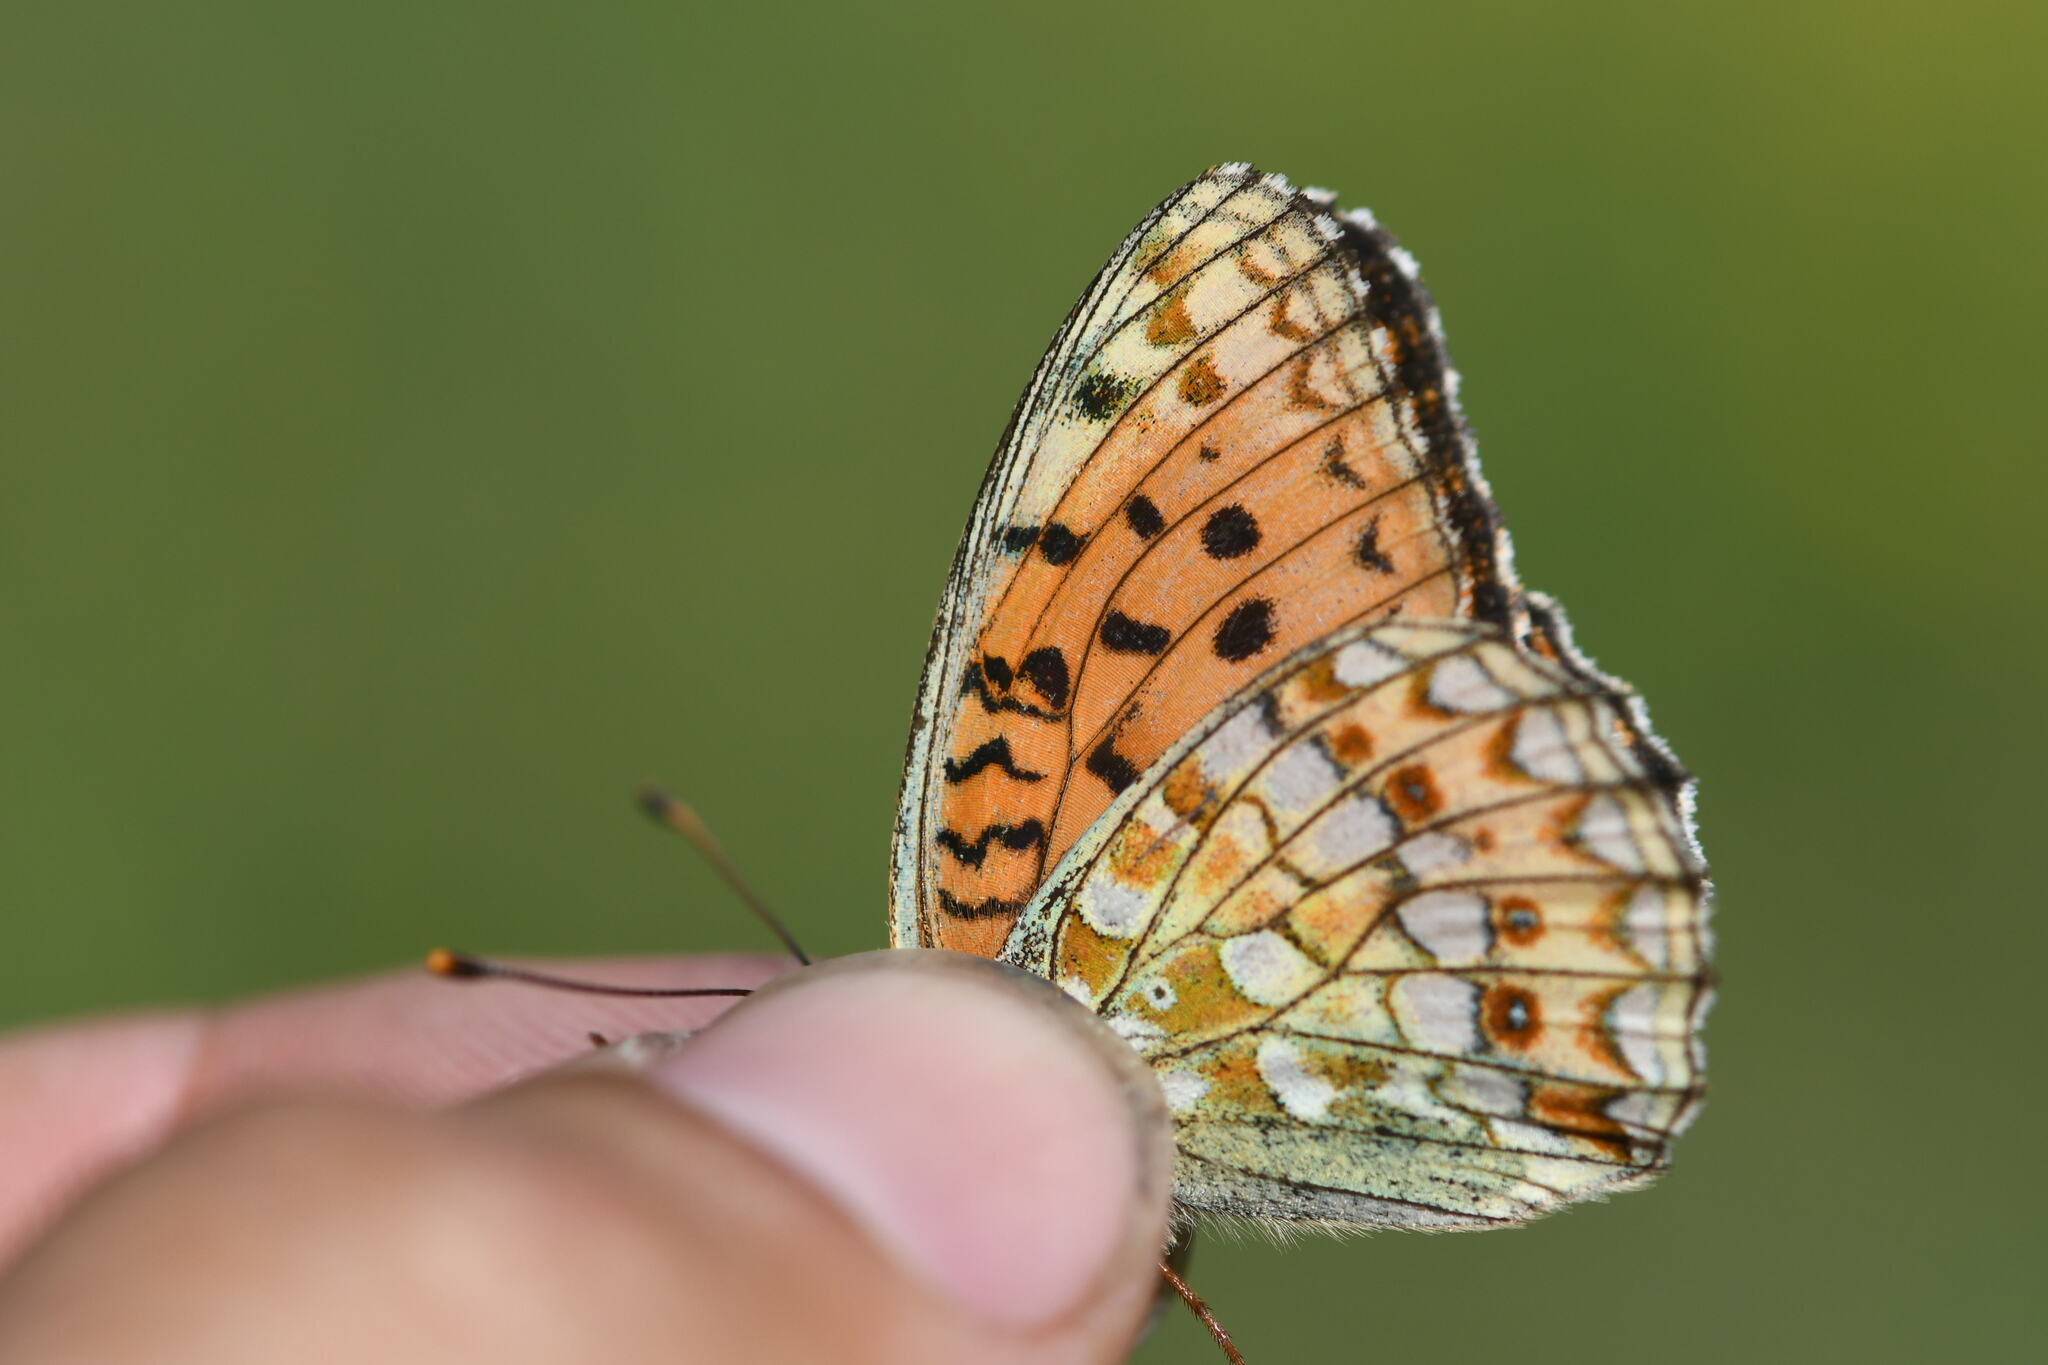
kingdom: Animalia
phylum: Arthropoda
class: Insecta
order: Lepidoptera
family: Nymphalidae
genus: Fabriciana
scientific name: Fabriciana niobe
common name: Niobe fritillary
